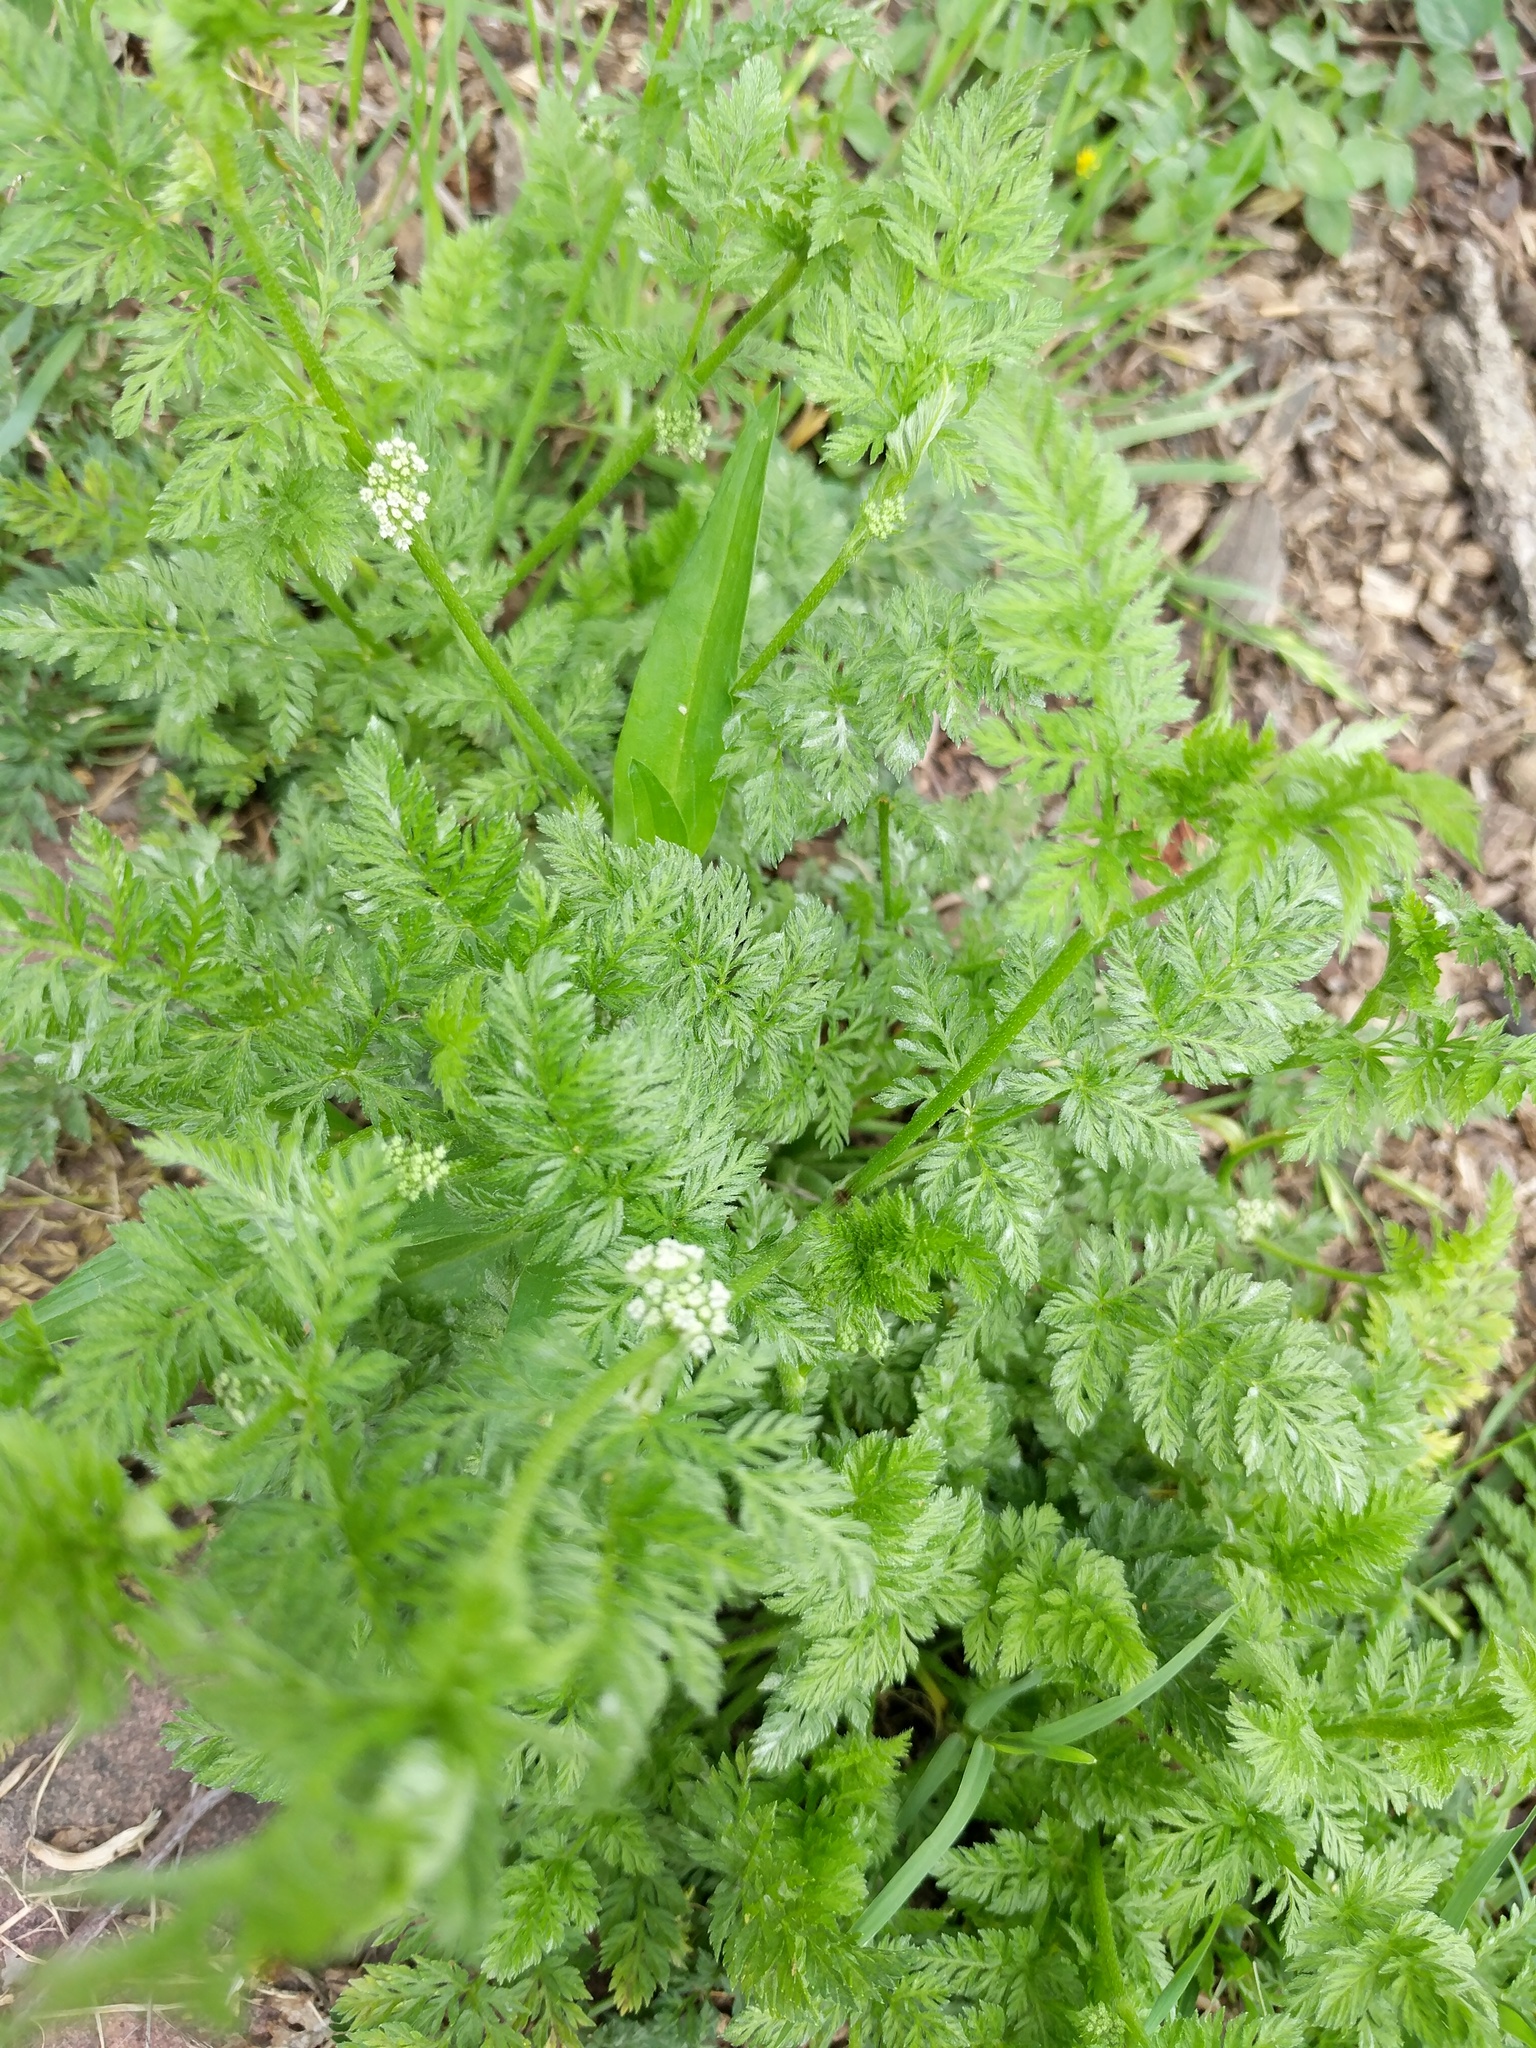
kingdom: Plantae
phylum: Tracheophyta
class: Magnoliopsida
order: Apiales
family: Apiaceae
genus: Torilis
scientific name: Torilis nodosa
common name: Knotted hedge-parsley
